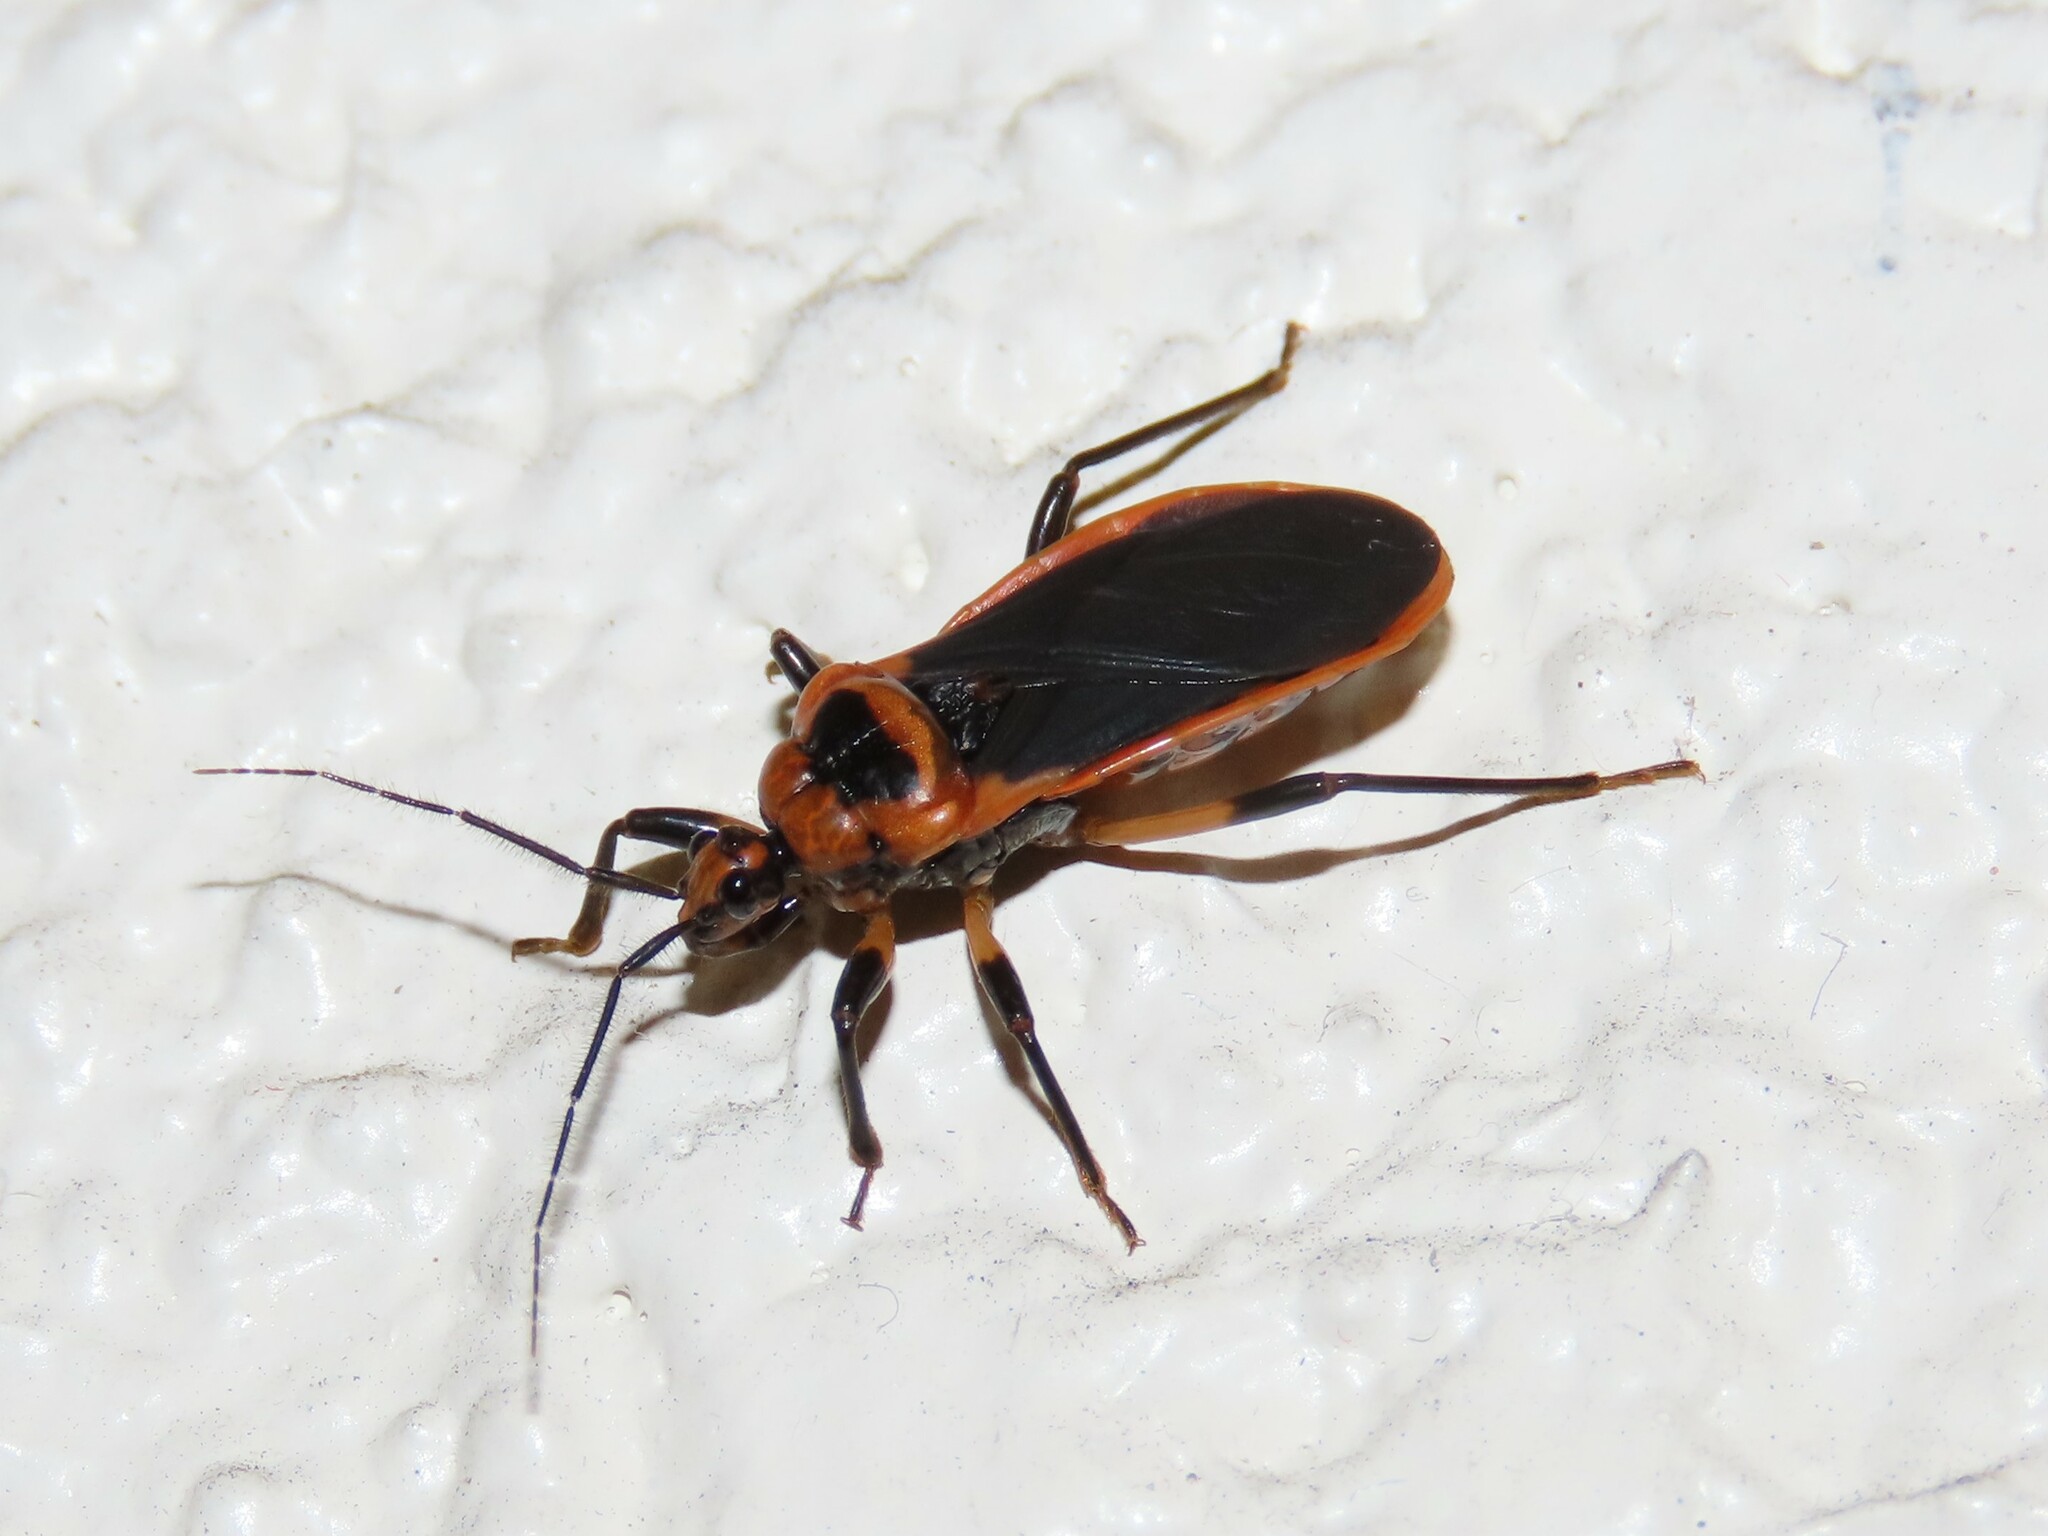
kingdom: Animalia
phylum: Arthropoda
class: Insecta
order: Hemiptera
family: Reduviidae
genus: Rhiginia
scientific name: Rhiginia cruciata
